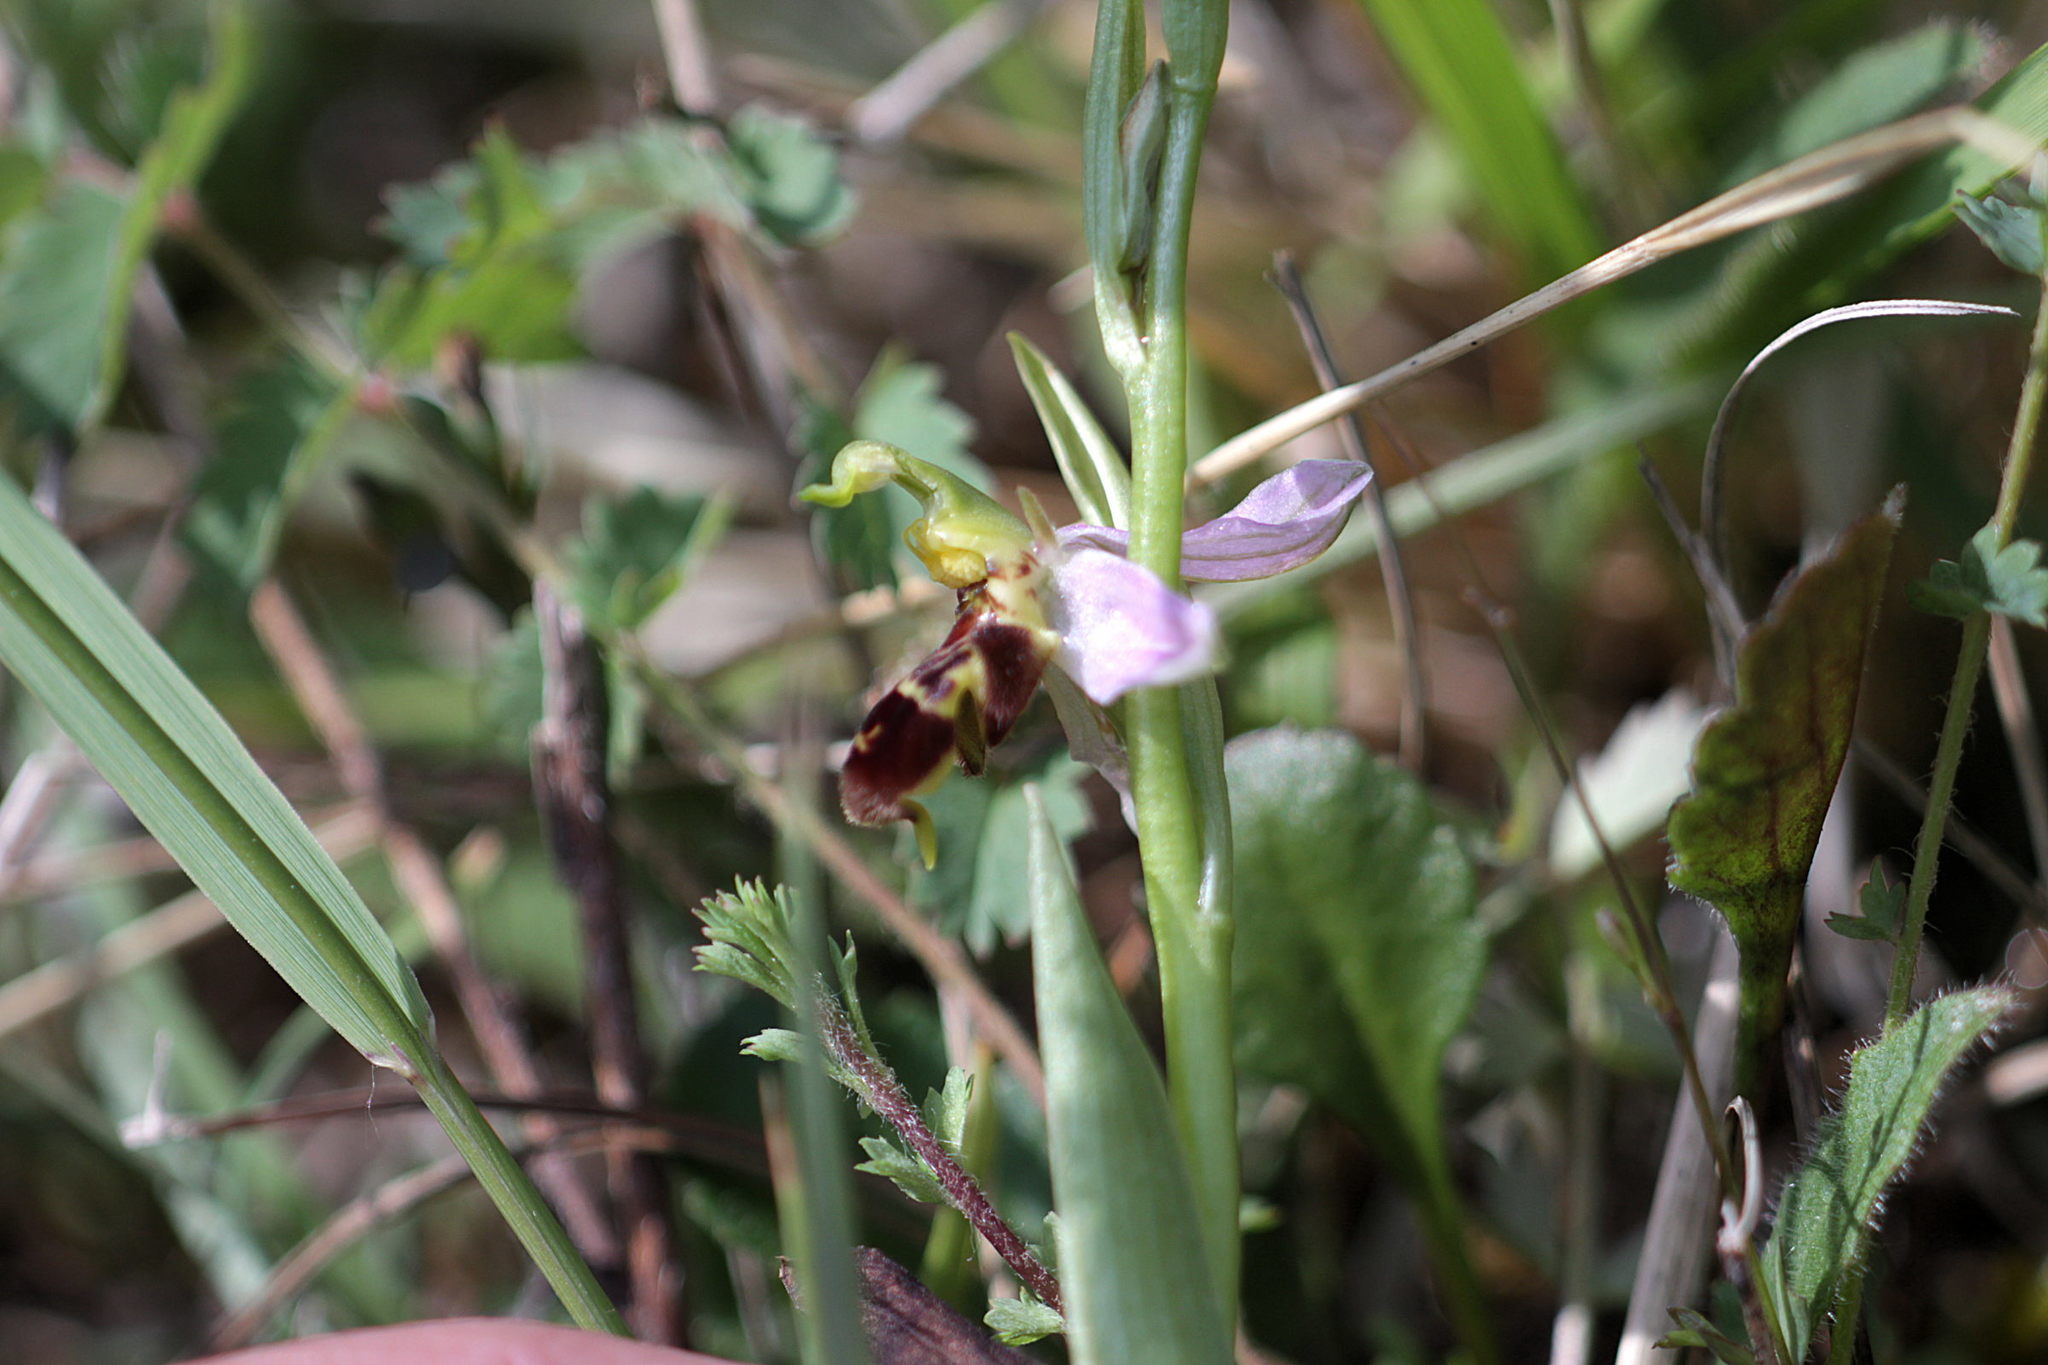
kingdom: Plantae
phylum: Tracheophyta
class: Liliopsida
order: Asparagales
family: Orchidaceae
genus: Ophrys
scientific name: Ophrys apifera
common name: Bee orchid
